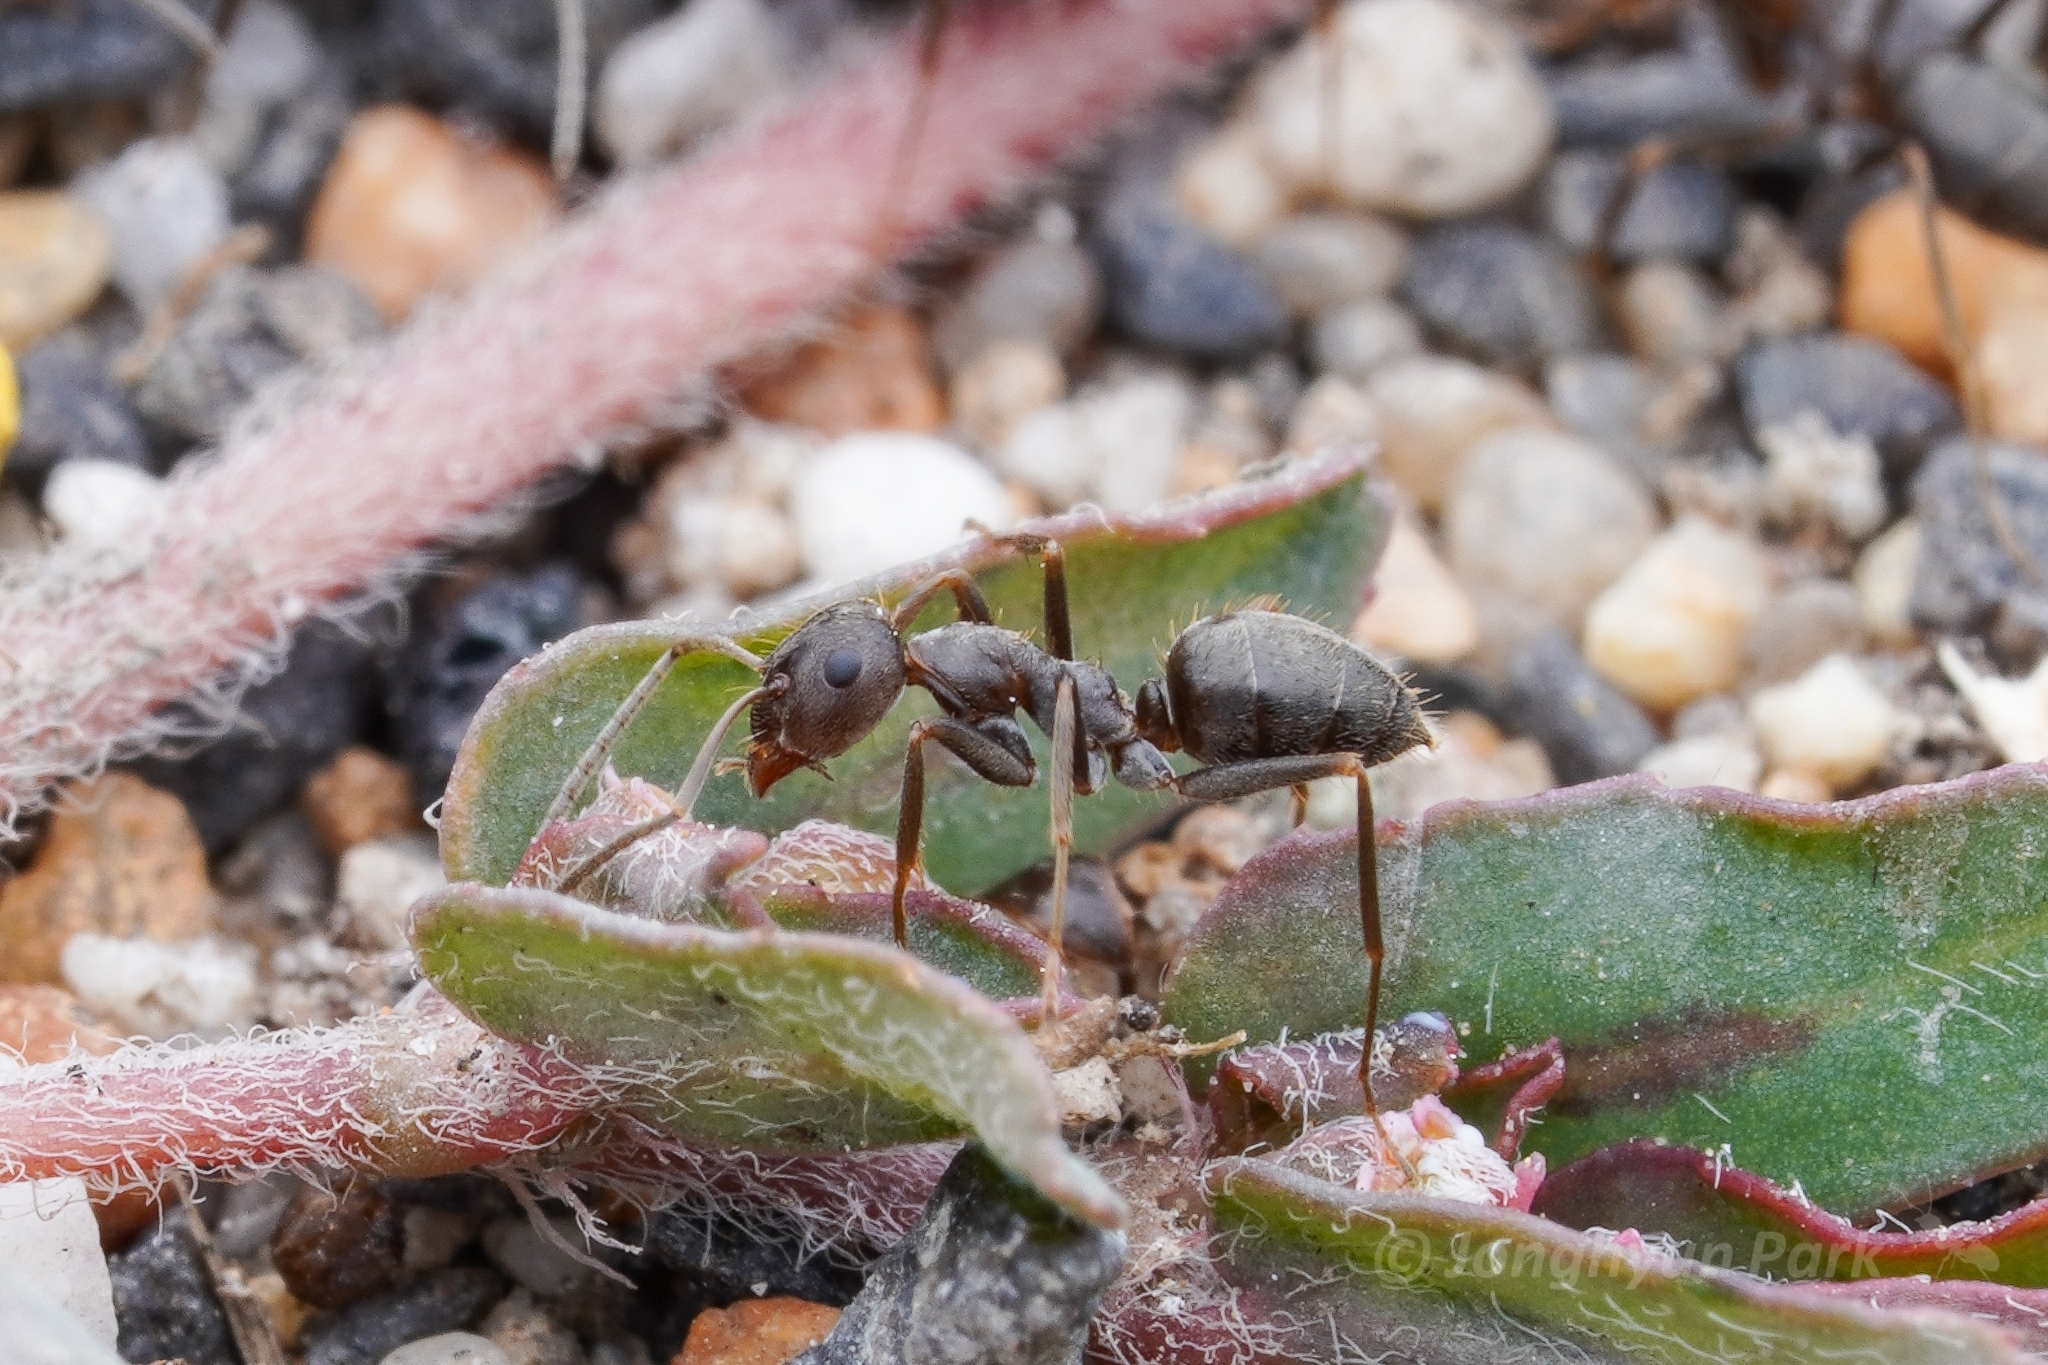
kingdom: Animalia
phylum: Arthropoda
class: Insecta
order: Hymenoptera
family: Formicidae
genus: Anoplolepis
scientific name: Anoplolepis fallax
